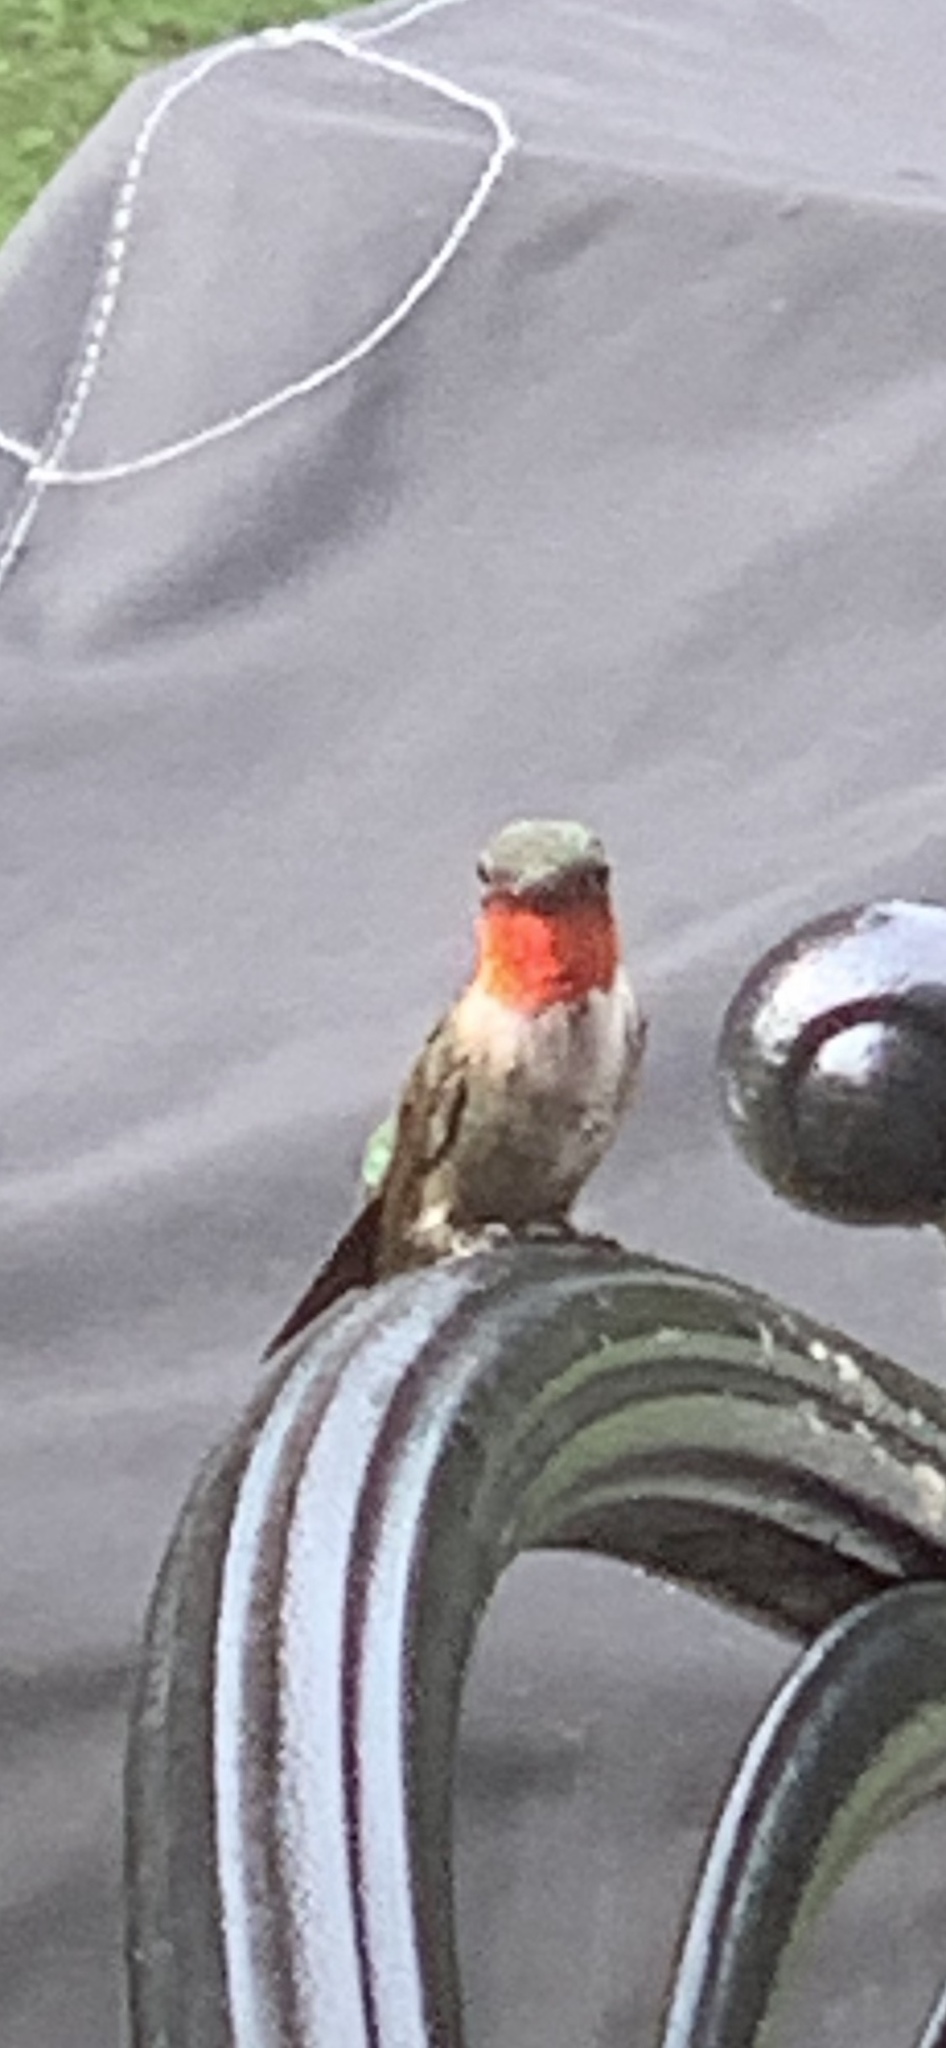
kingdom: Animalia
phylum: Chordata
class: Aves
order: Apodiformes
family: Trochilidae
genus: Archilochus
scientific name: Archilochus colubris
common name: Ruby-throated hummingbird
